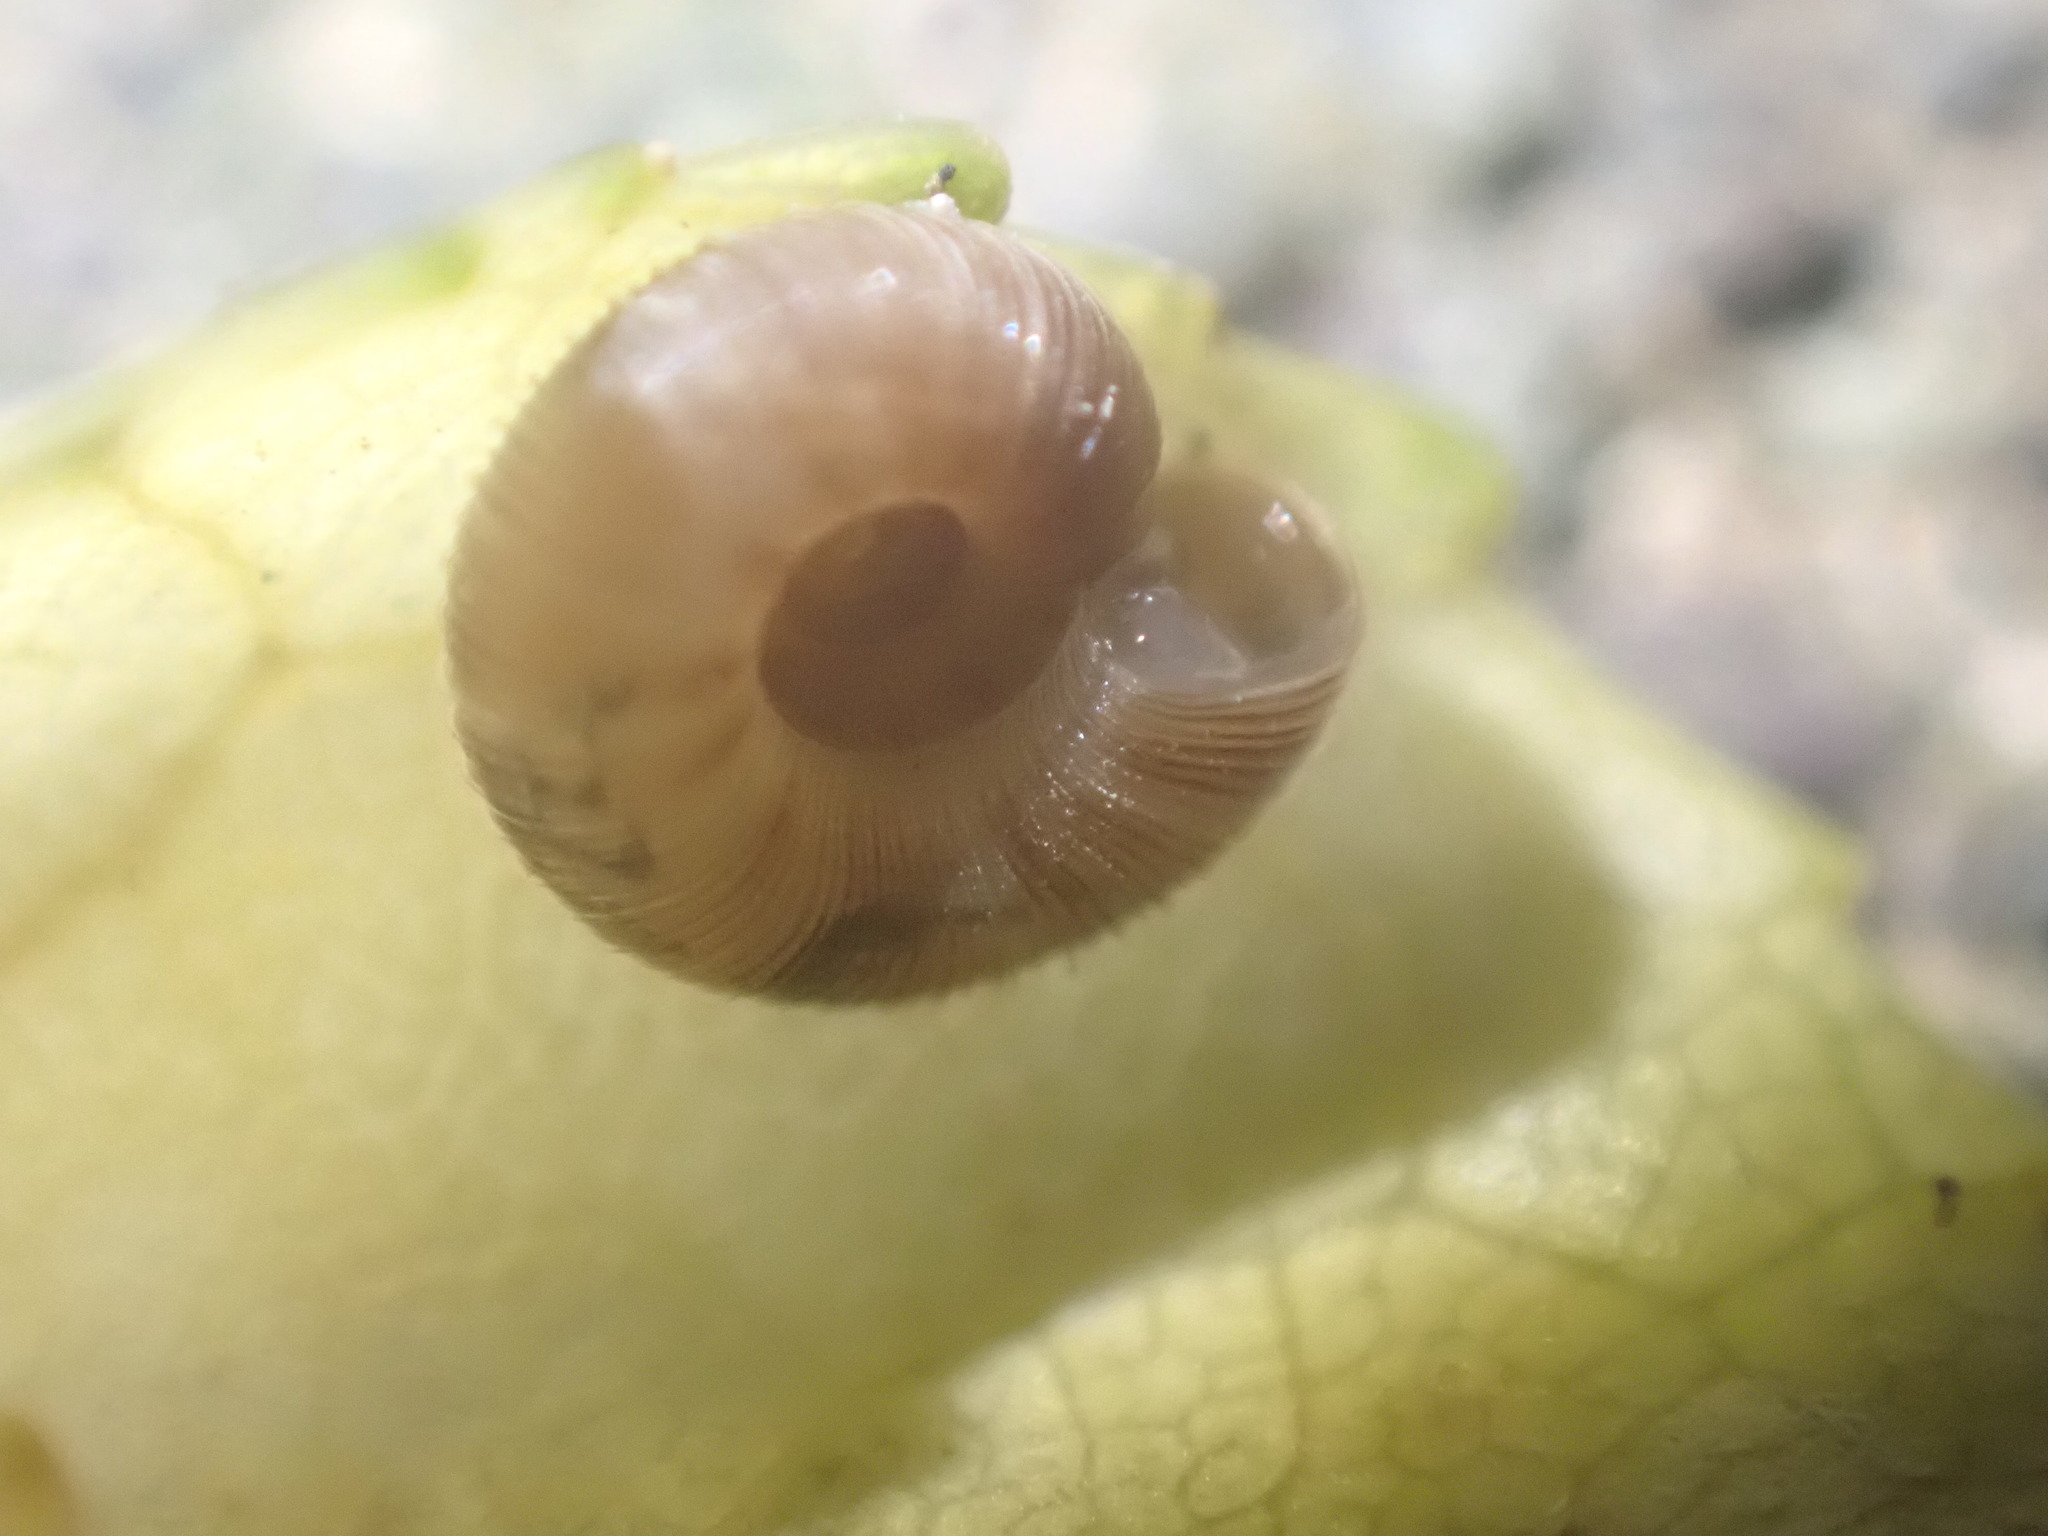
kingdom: Animalia
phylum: Mollusca
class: Gastropoda
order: Stylommatophora
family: Charopidae
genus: Cavellia
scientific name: Cavellia anguicula
